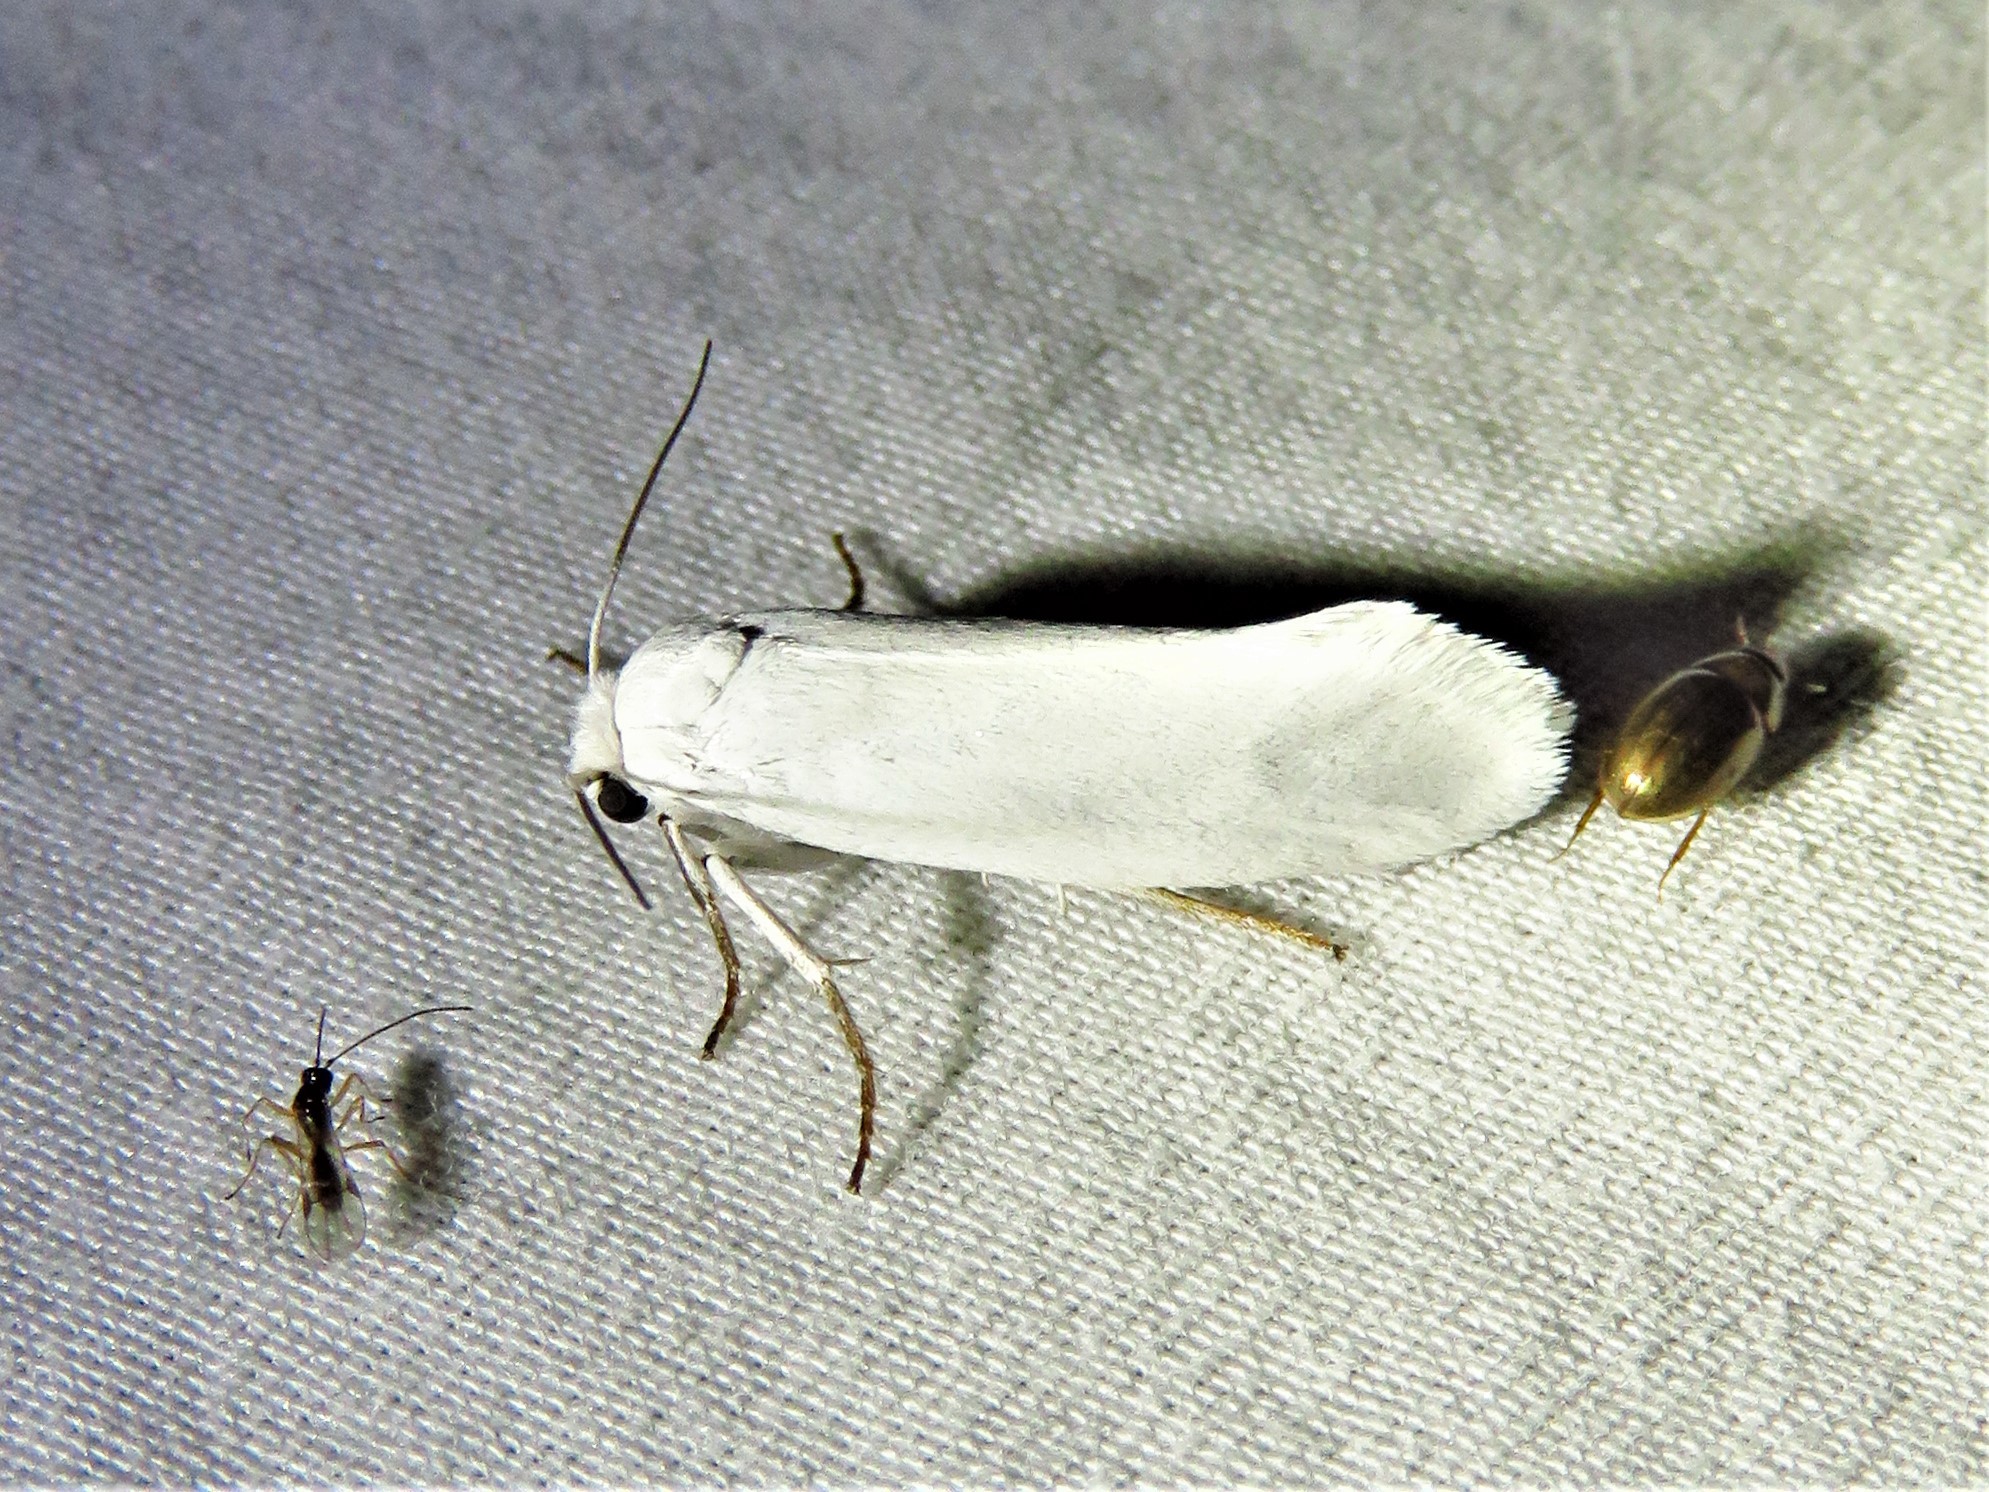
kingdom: Animalia
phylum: Arthropoda
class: Insecta
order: Lepidoptera
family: Prodoxidae
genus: Tegeticula
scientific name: Tegeticula yuccasella
